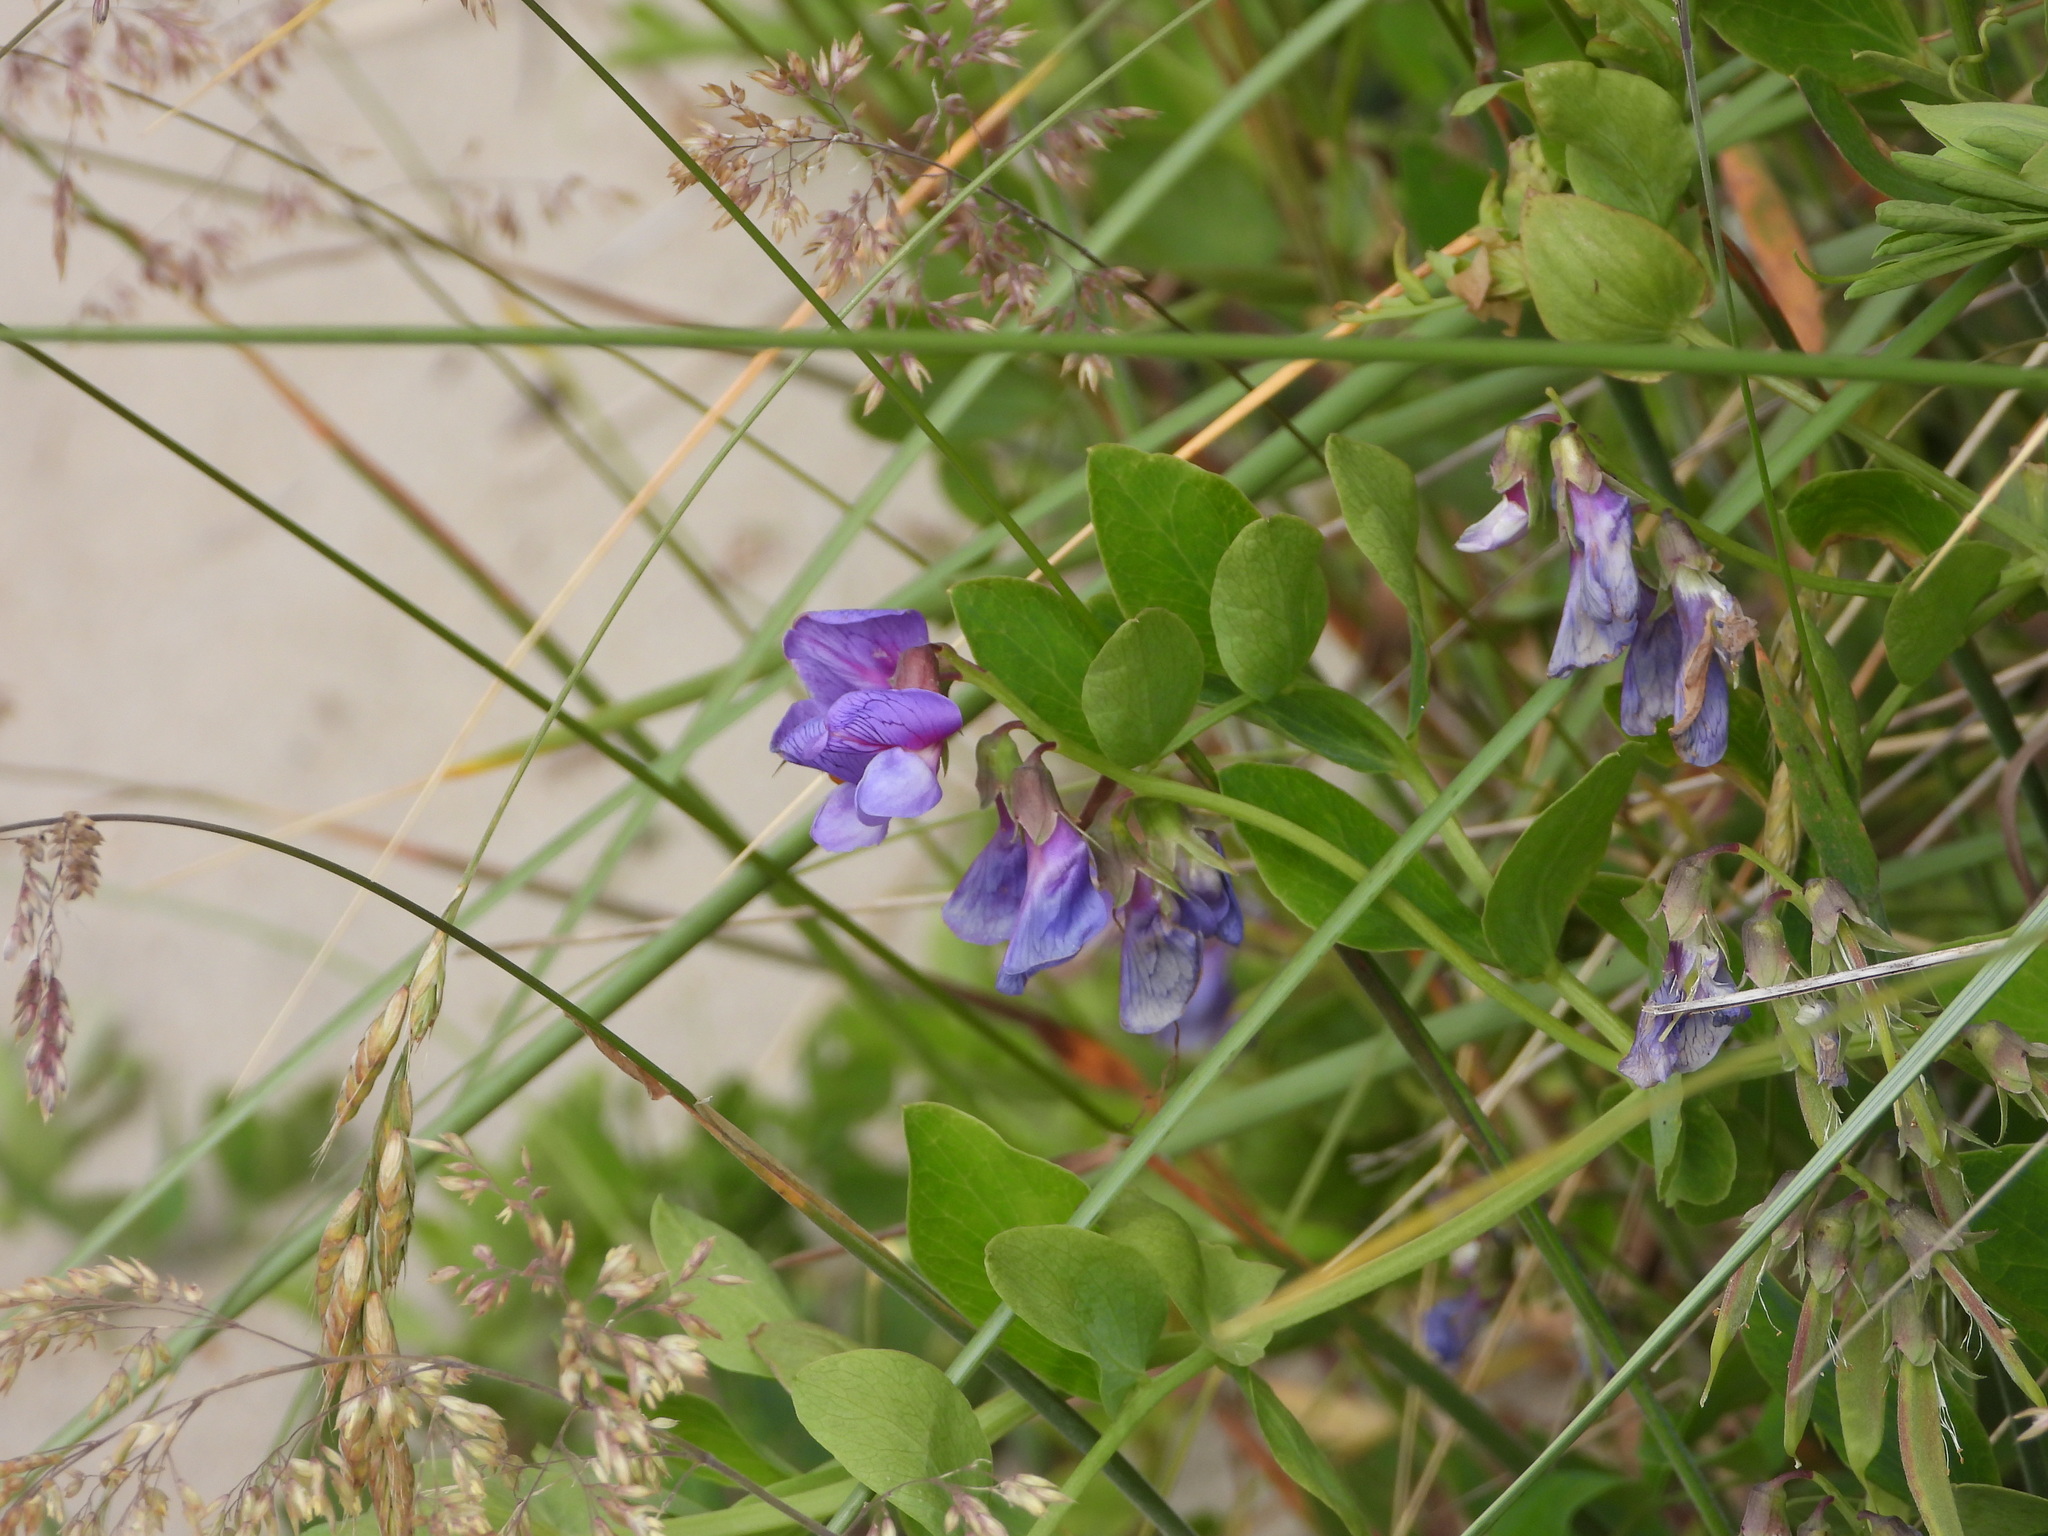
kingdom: Plantae
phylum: Tracheophyta
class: Magnoliopsida
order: Fabales
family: Fabaceae
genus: Lathyrus
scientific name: Lathyrus japonicus
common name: Sea pea
